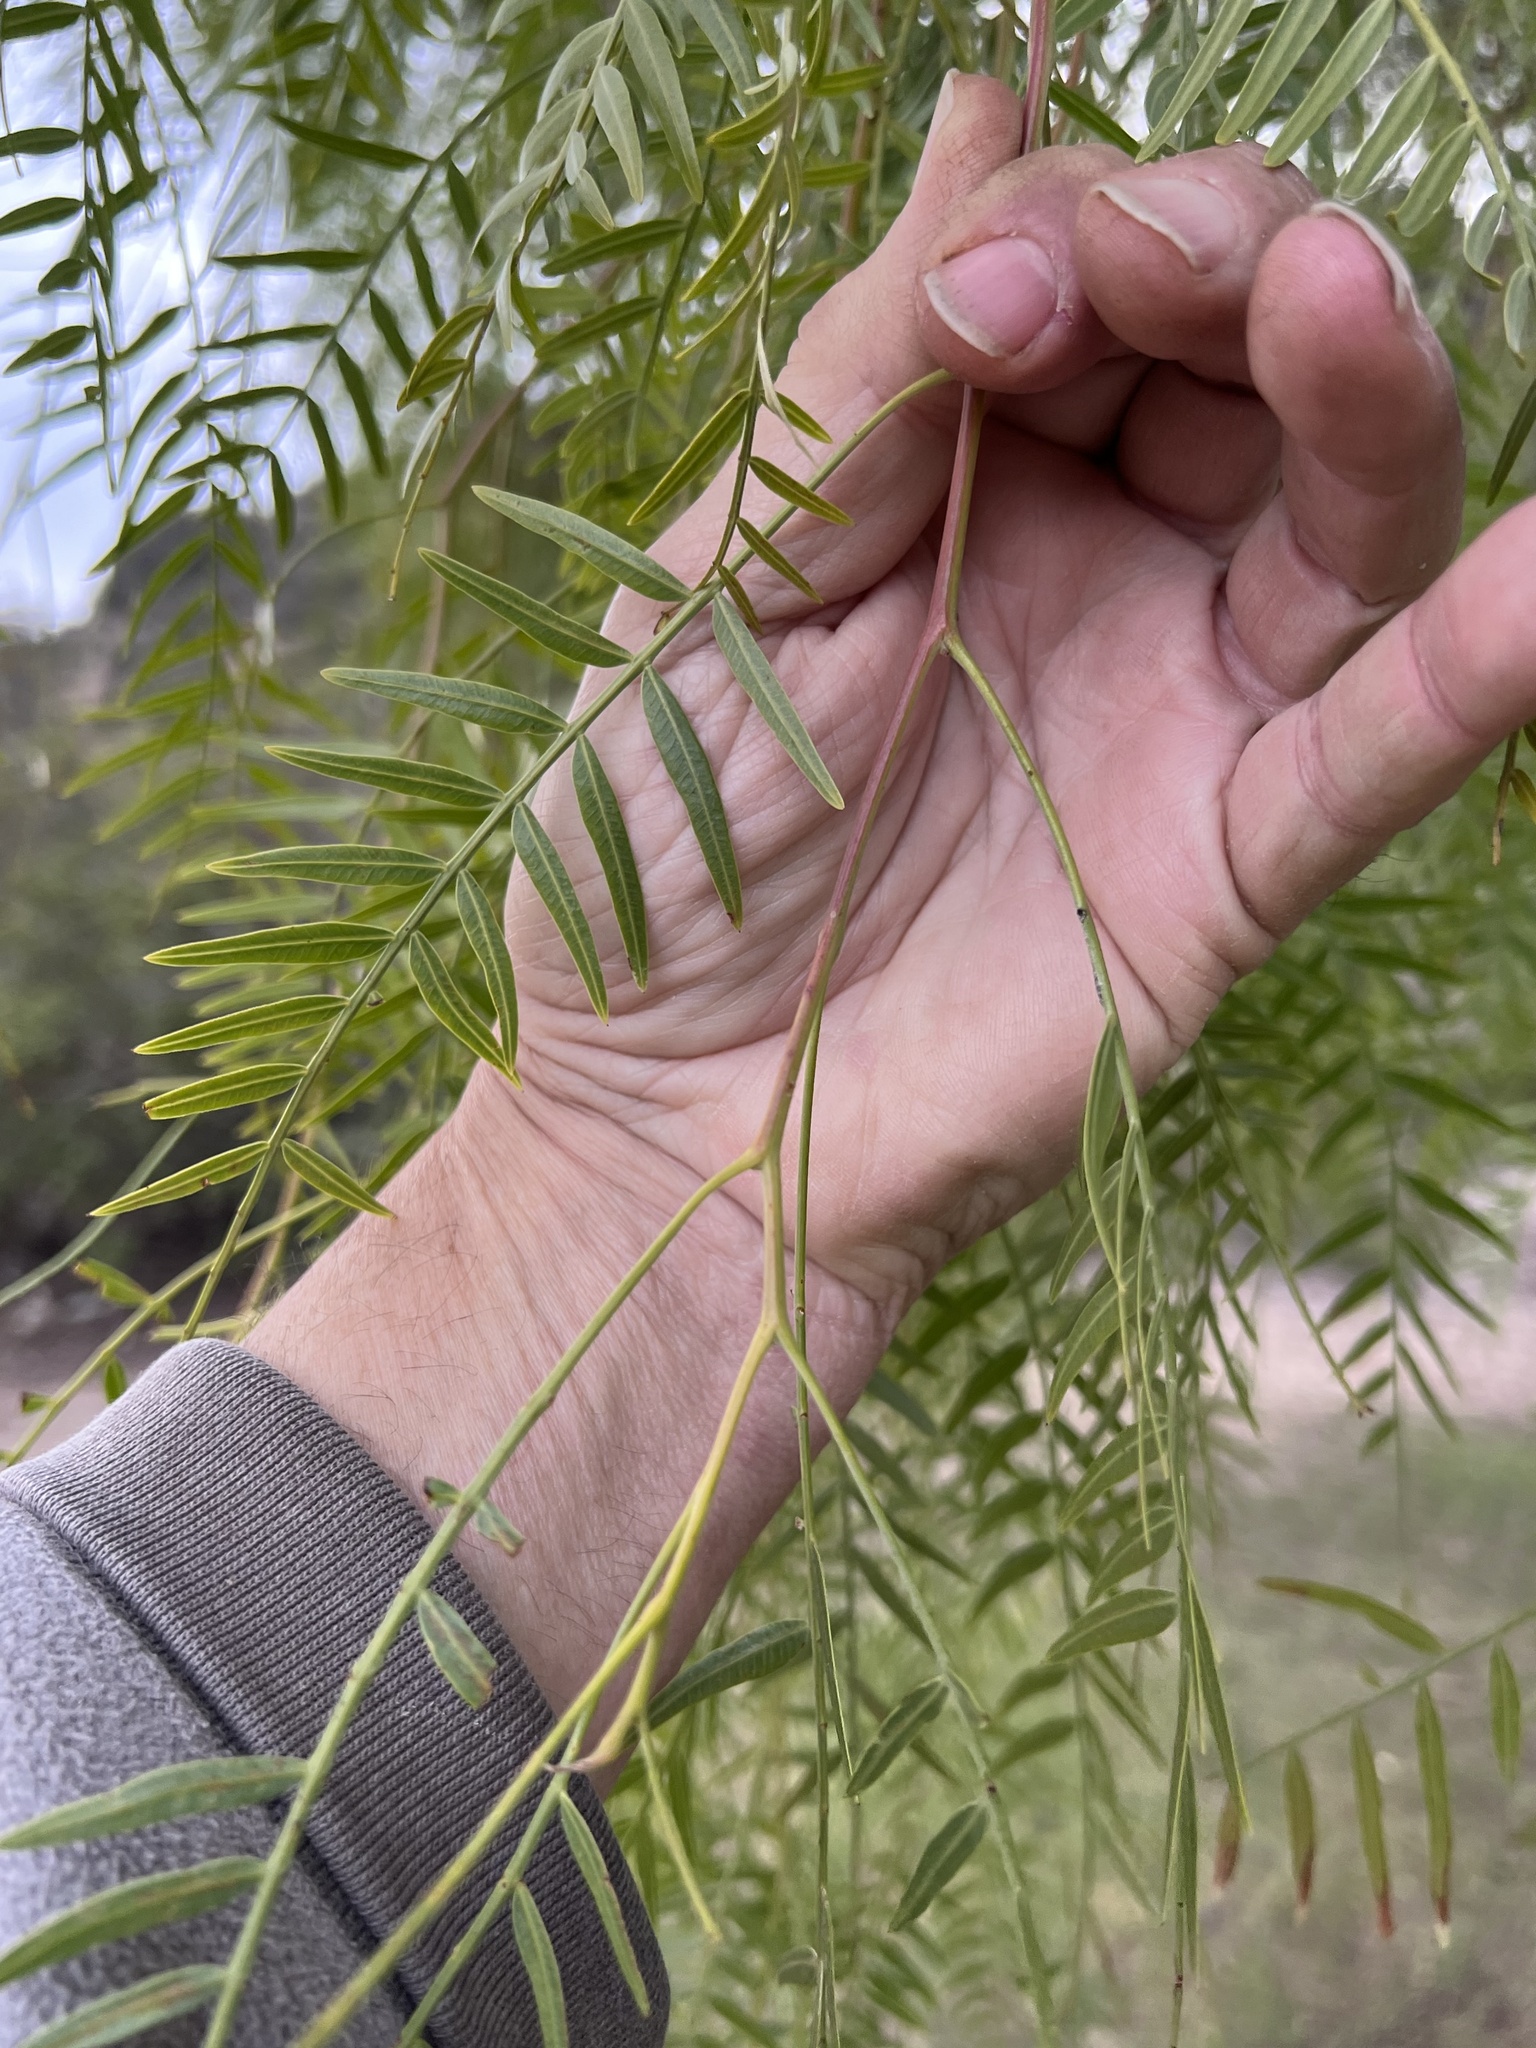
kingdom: Plantae
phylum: Tracheophyta
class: Magnoliopsida
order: Sapindales
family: Anacardiaceae
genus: Schinus
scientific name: Schinus molle
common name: Peruvian peppertree
